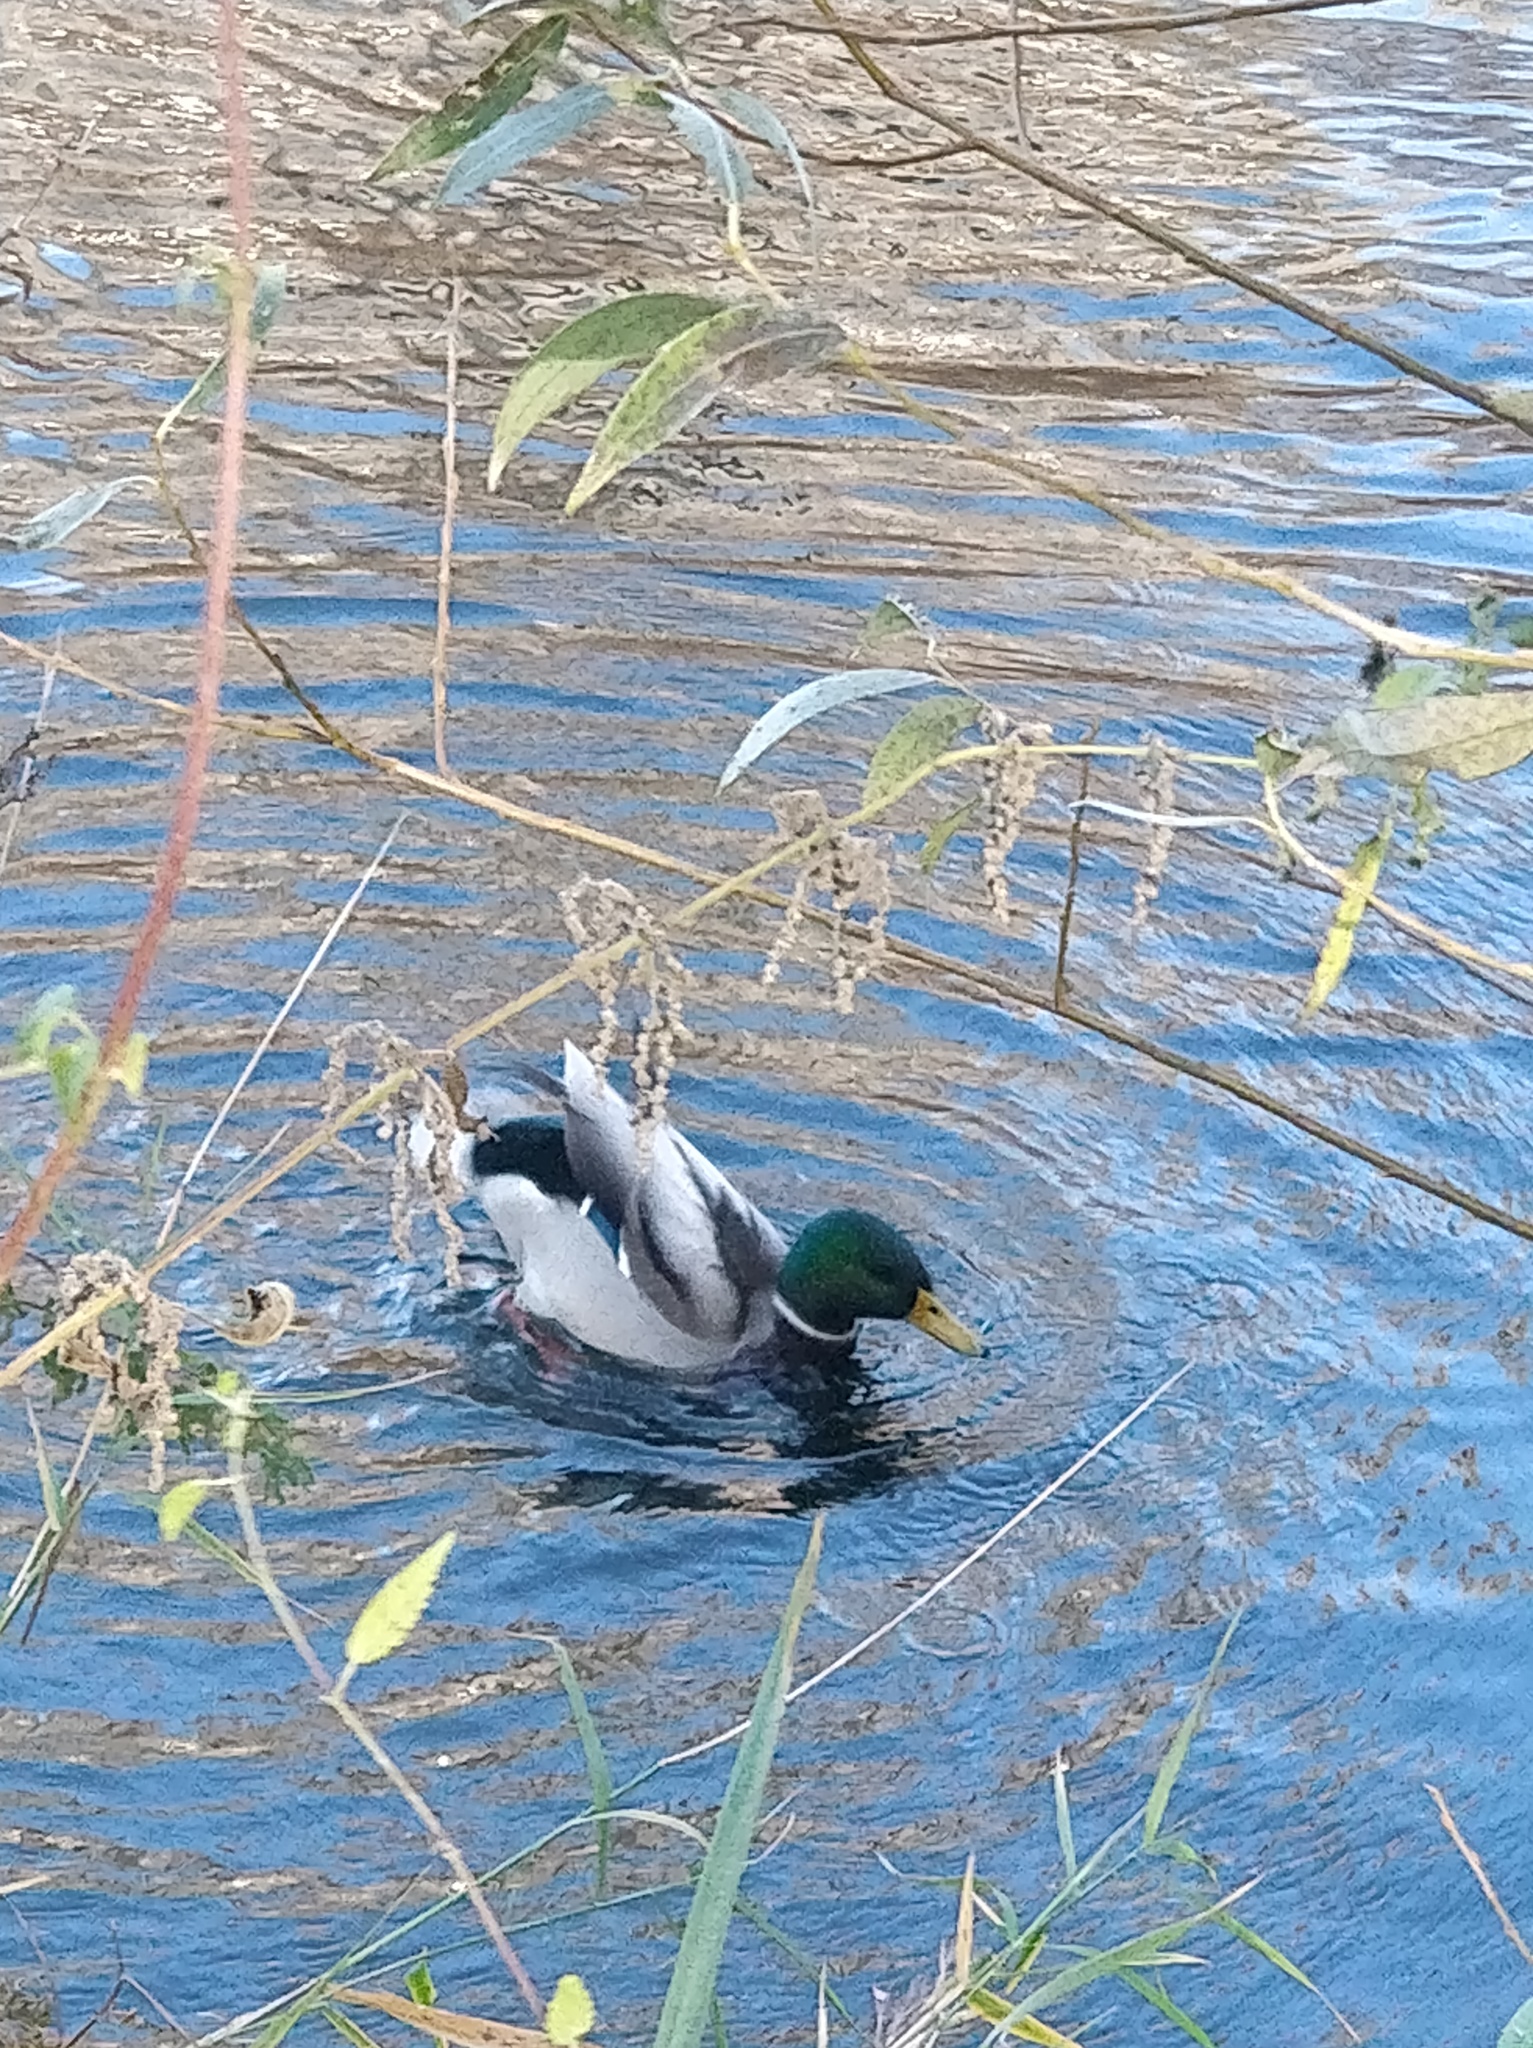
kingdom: Animalia
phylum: Chordata
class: Aves
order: Anseriformes
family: Anatidae
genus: Anas
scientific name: Anas platyrhynchos
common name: Mallard
